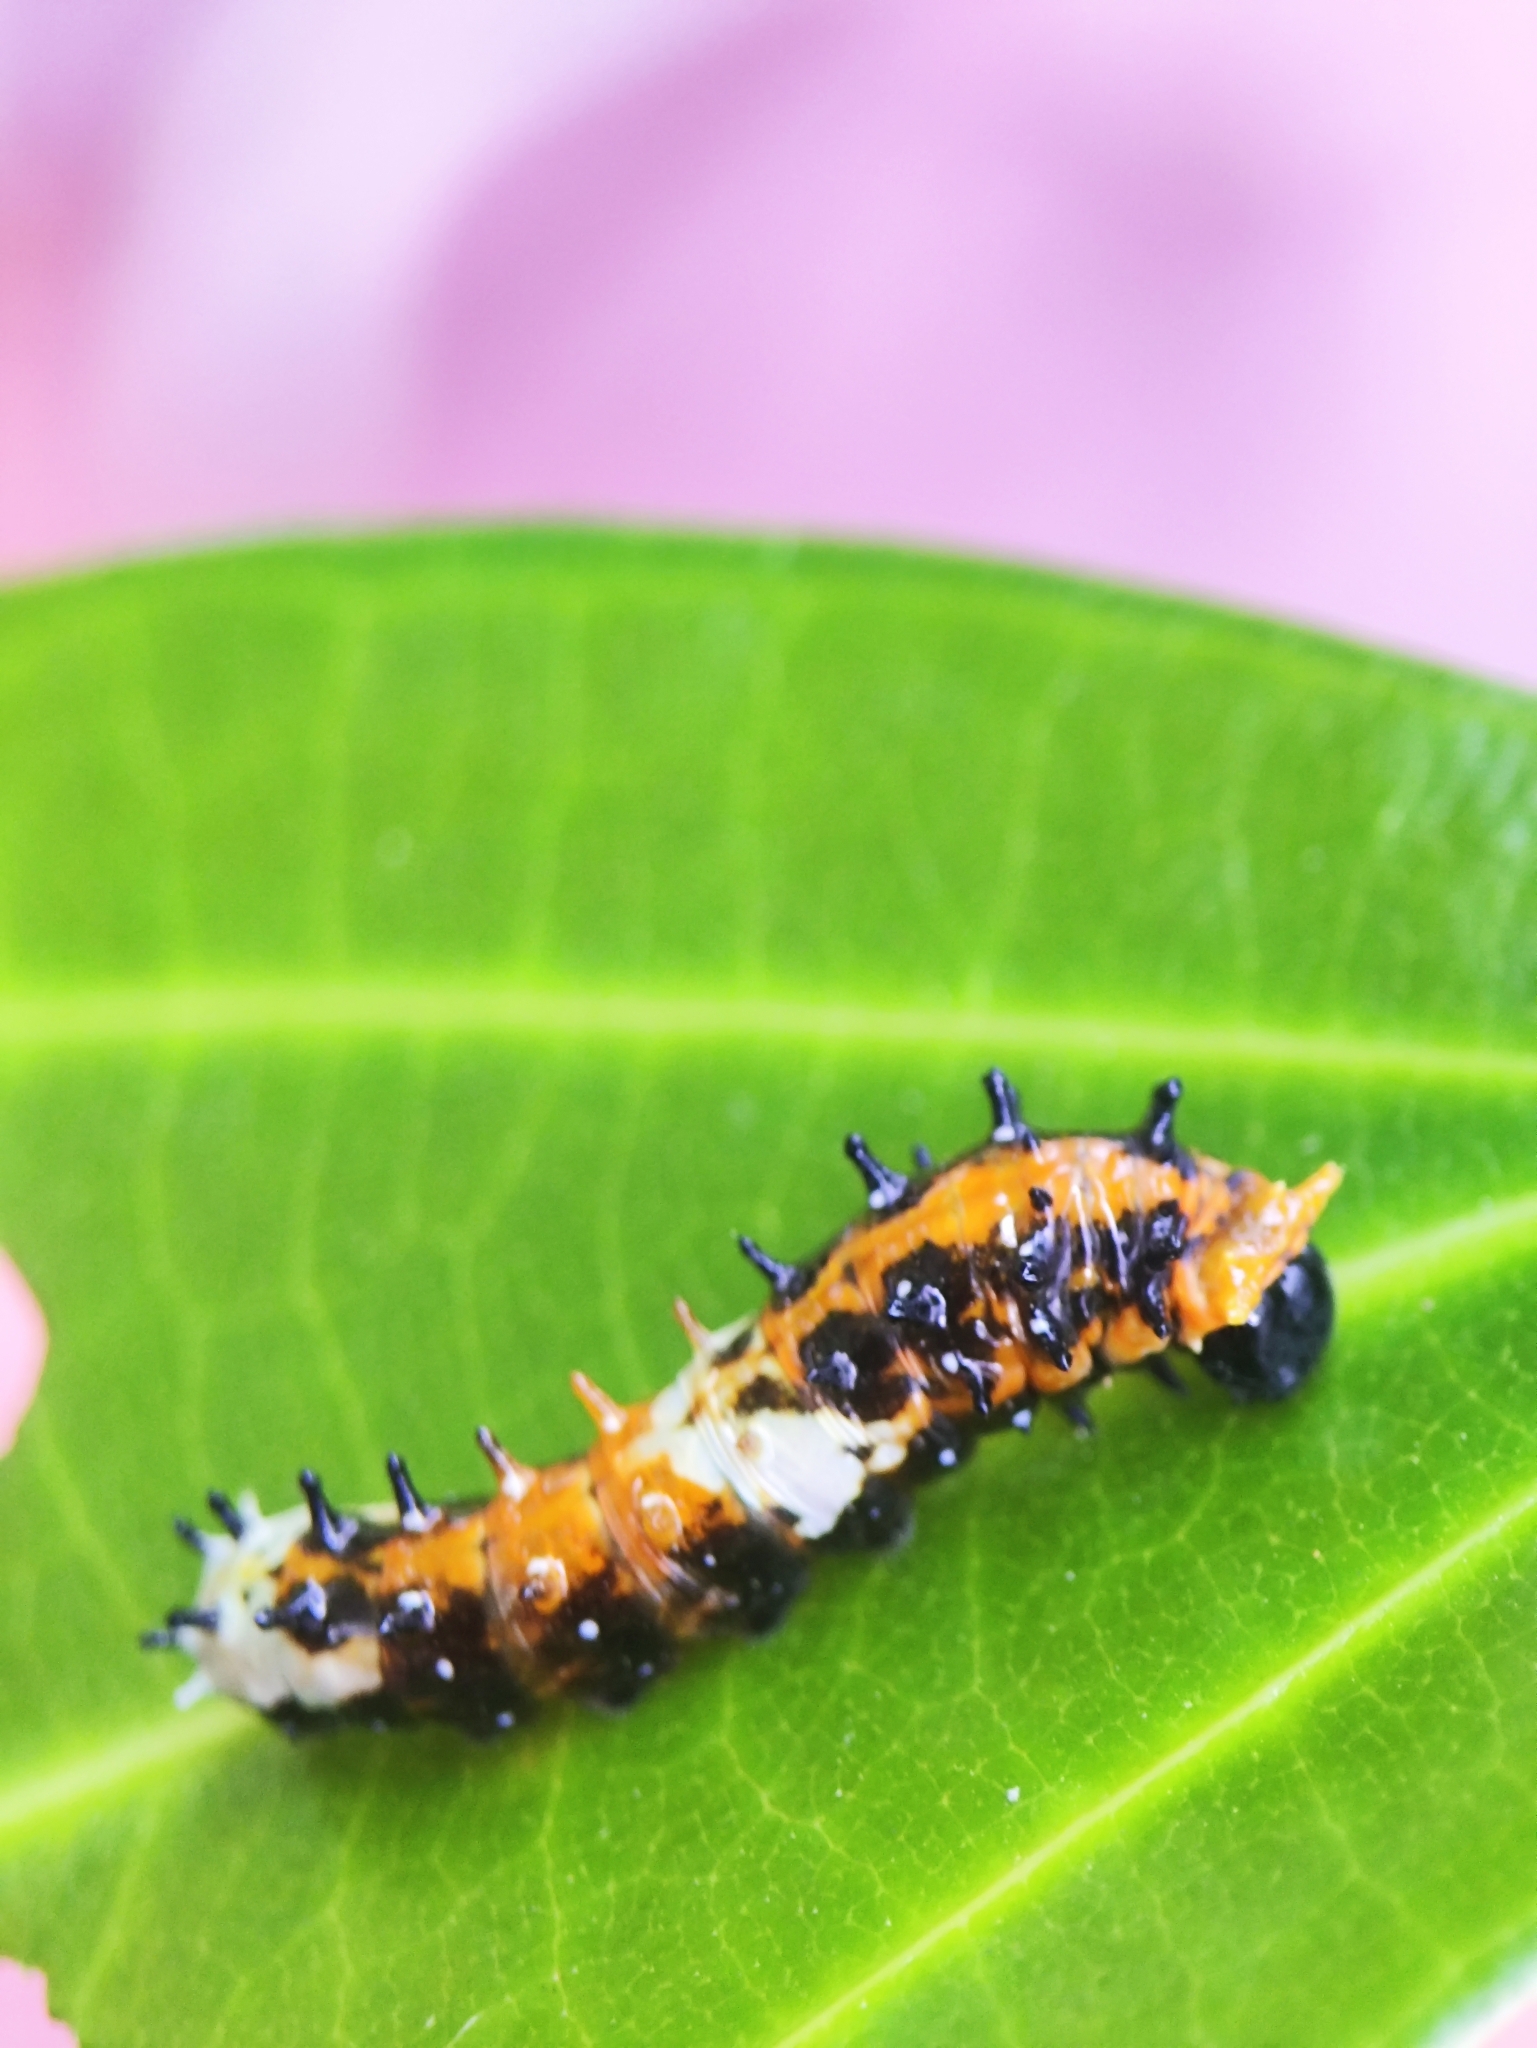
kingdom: Animalia
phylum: Arthropoda
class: Insecta
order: Lepidoptera
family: Papilionidae
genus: Chilasa
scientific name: Chilasa clytia
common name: Common mime
